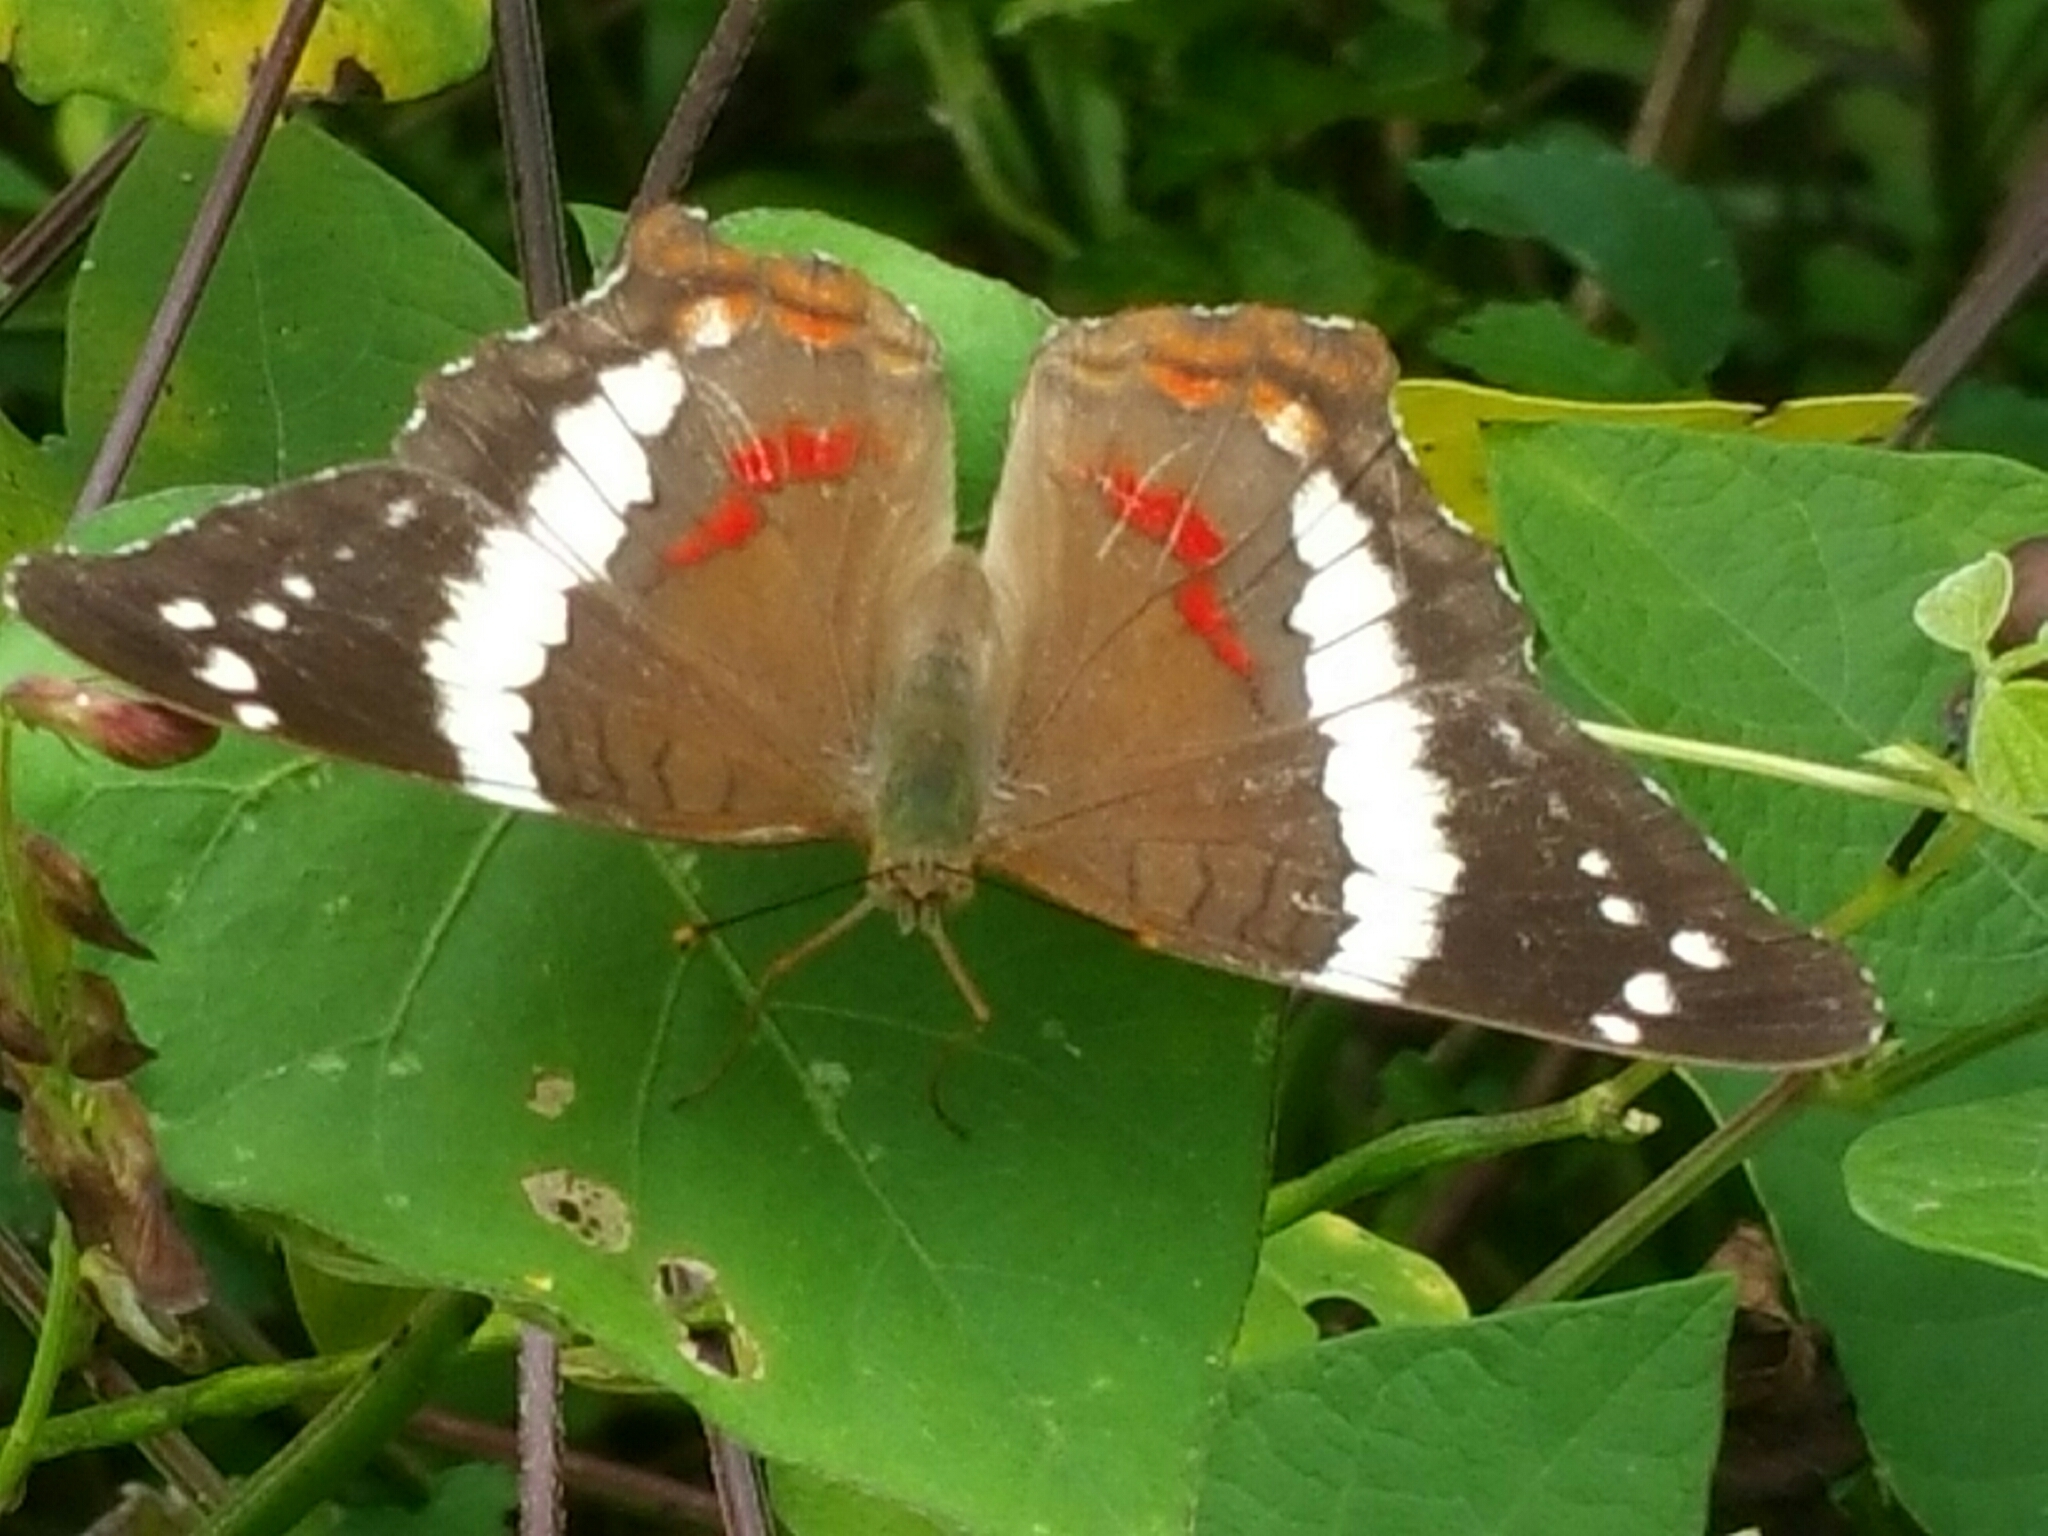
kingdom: Animalia
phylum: Arthropoda
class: Insecta
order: Lepidoptera
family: Nymphalidae
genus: Anartia
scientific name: Anartia fatima
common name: Banded peacock
